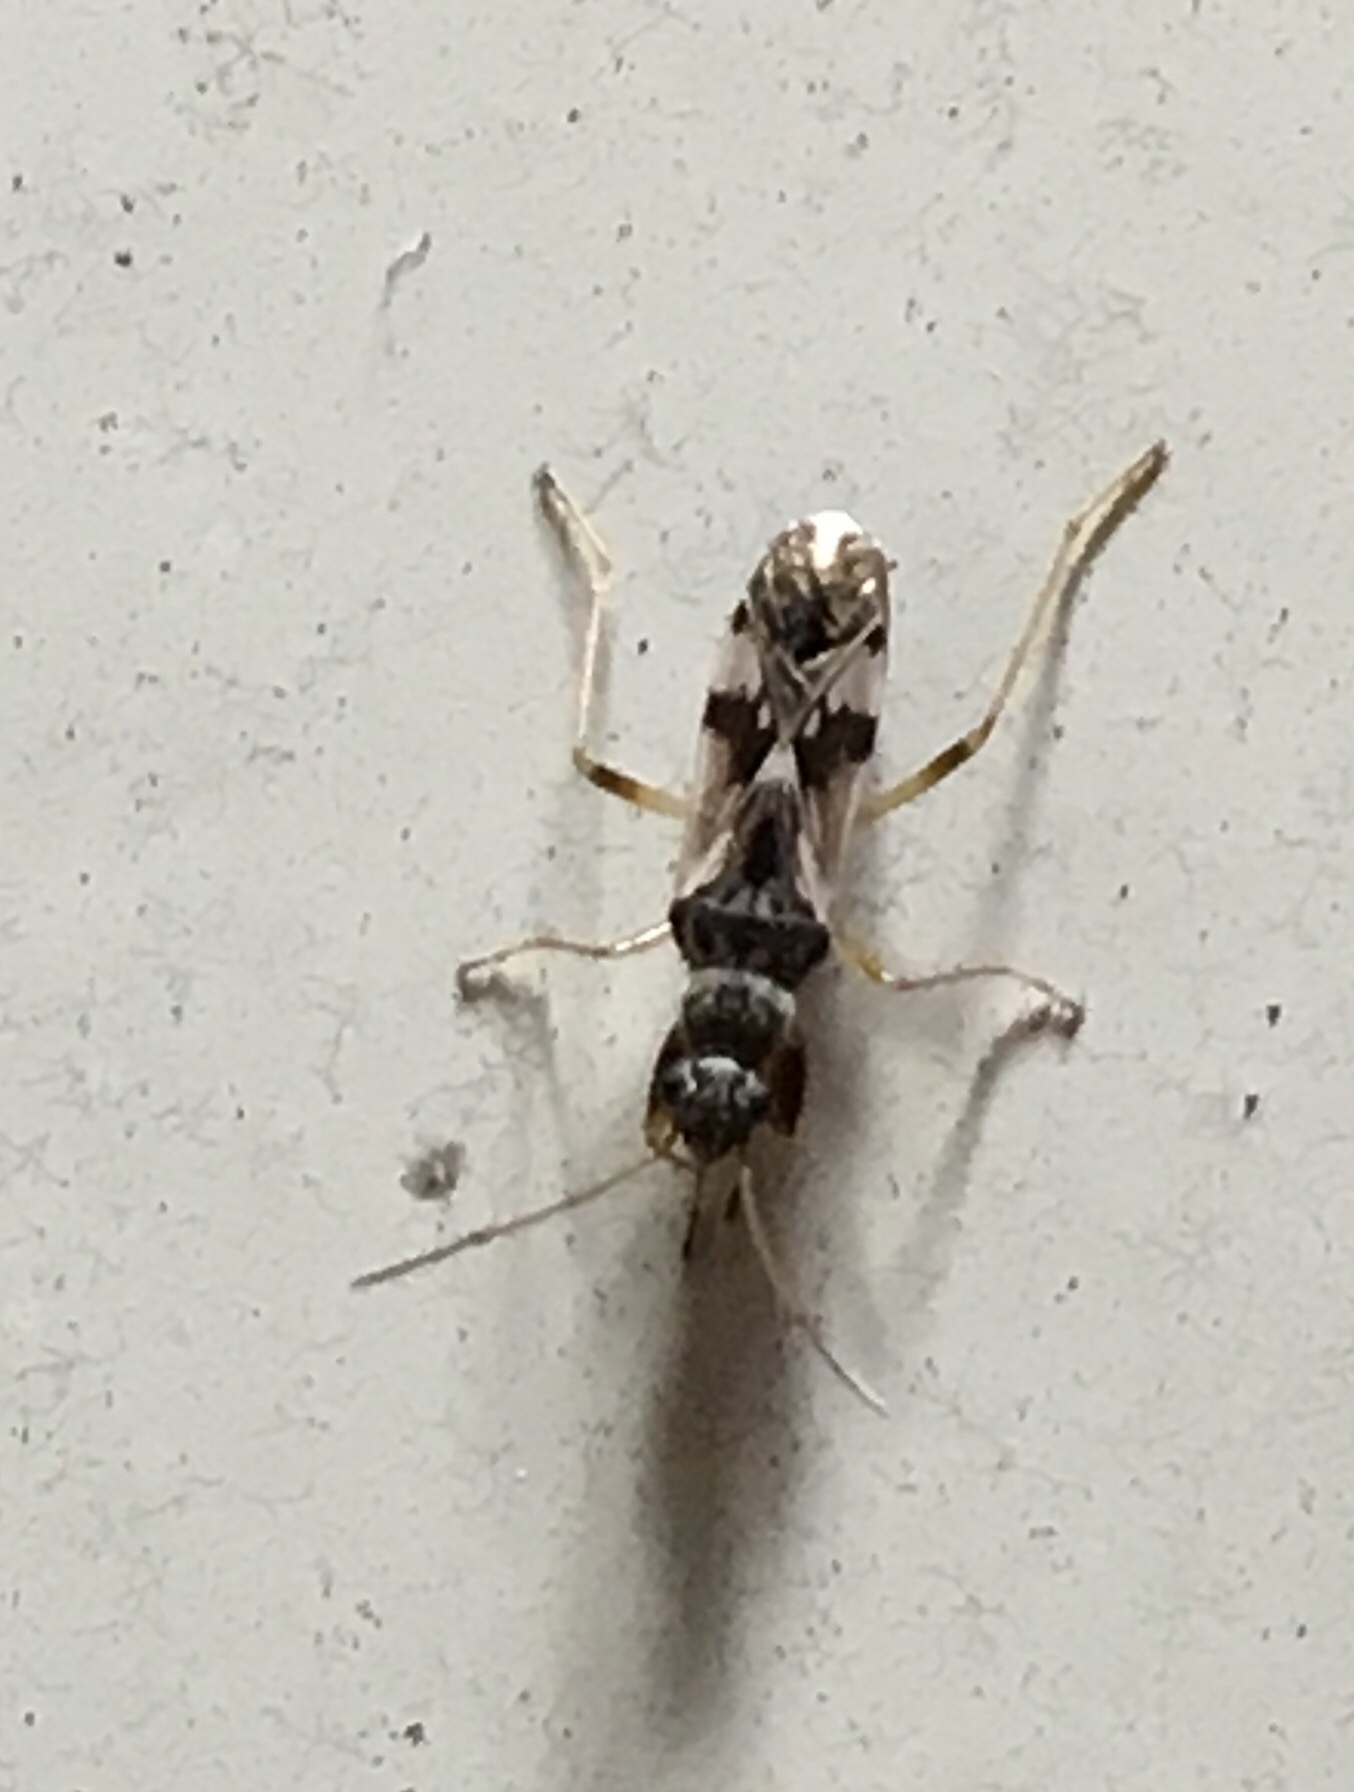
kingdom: Animalia
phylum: Arthropoda
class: Insecta
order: Hemiptera
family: Rhyparochromidae
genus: Neopamera
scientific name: Neopamera bilobata
